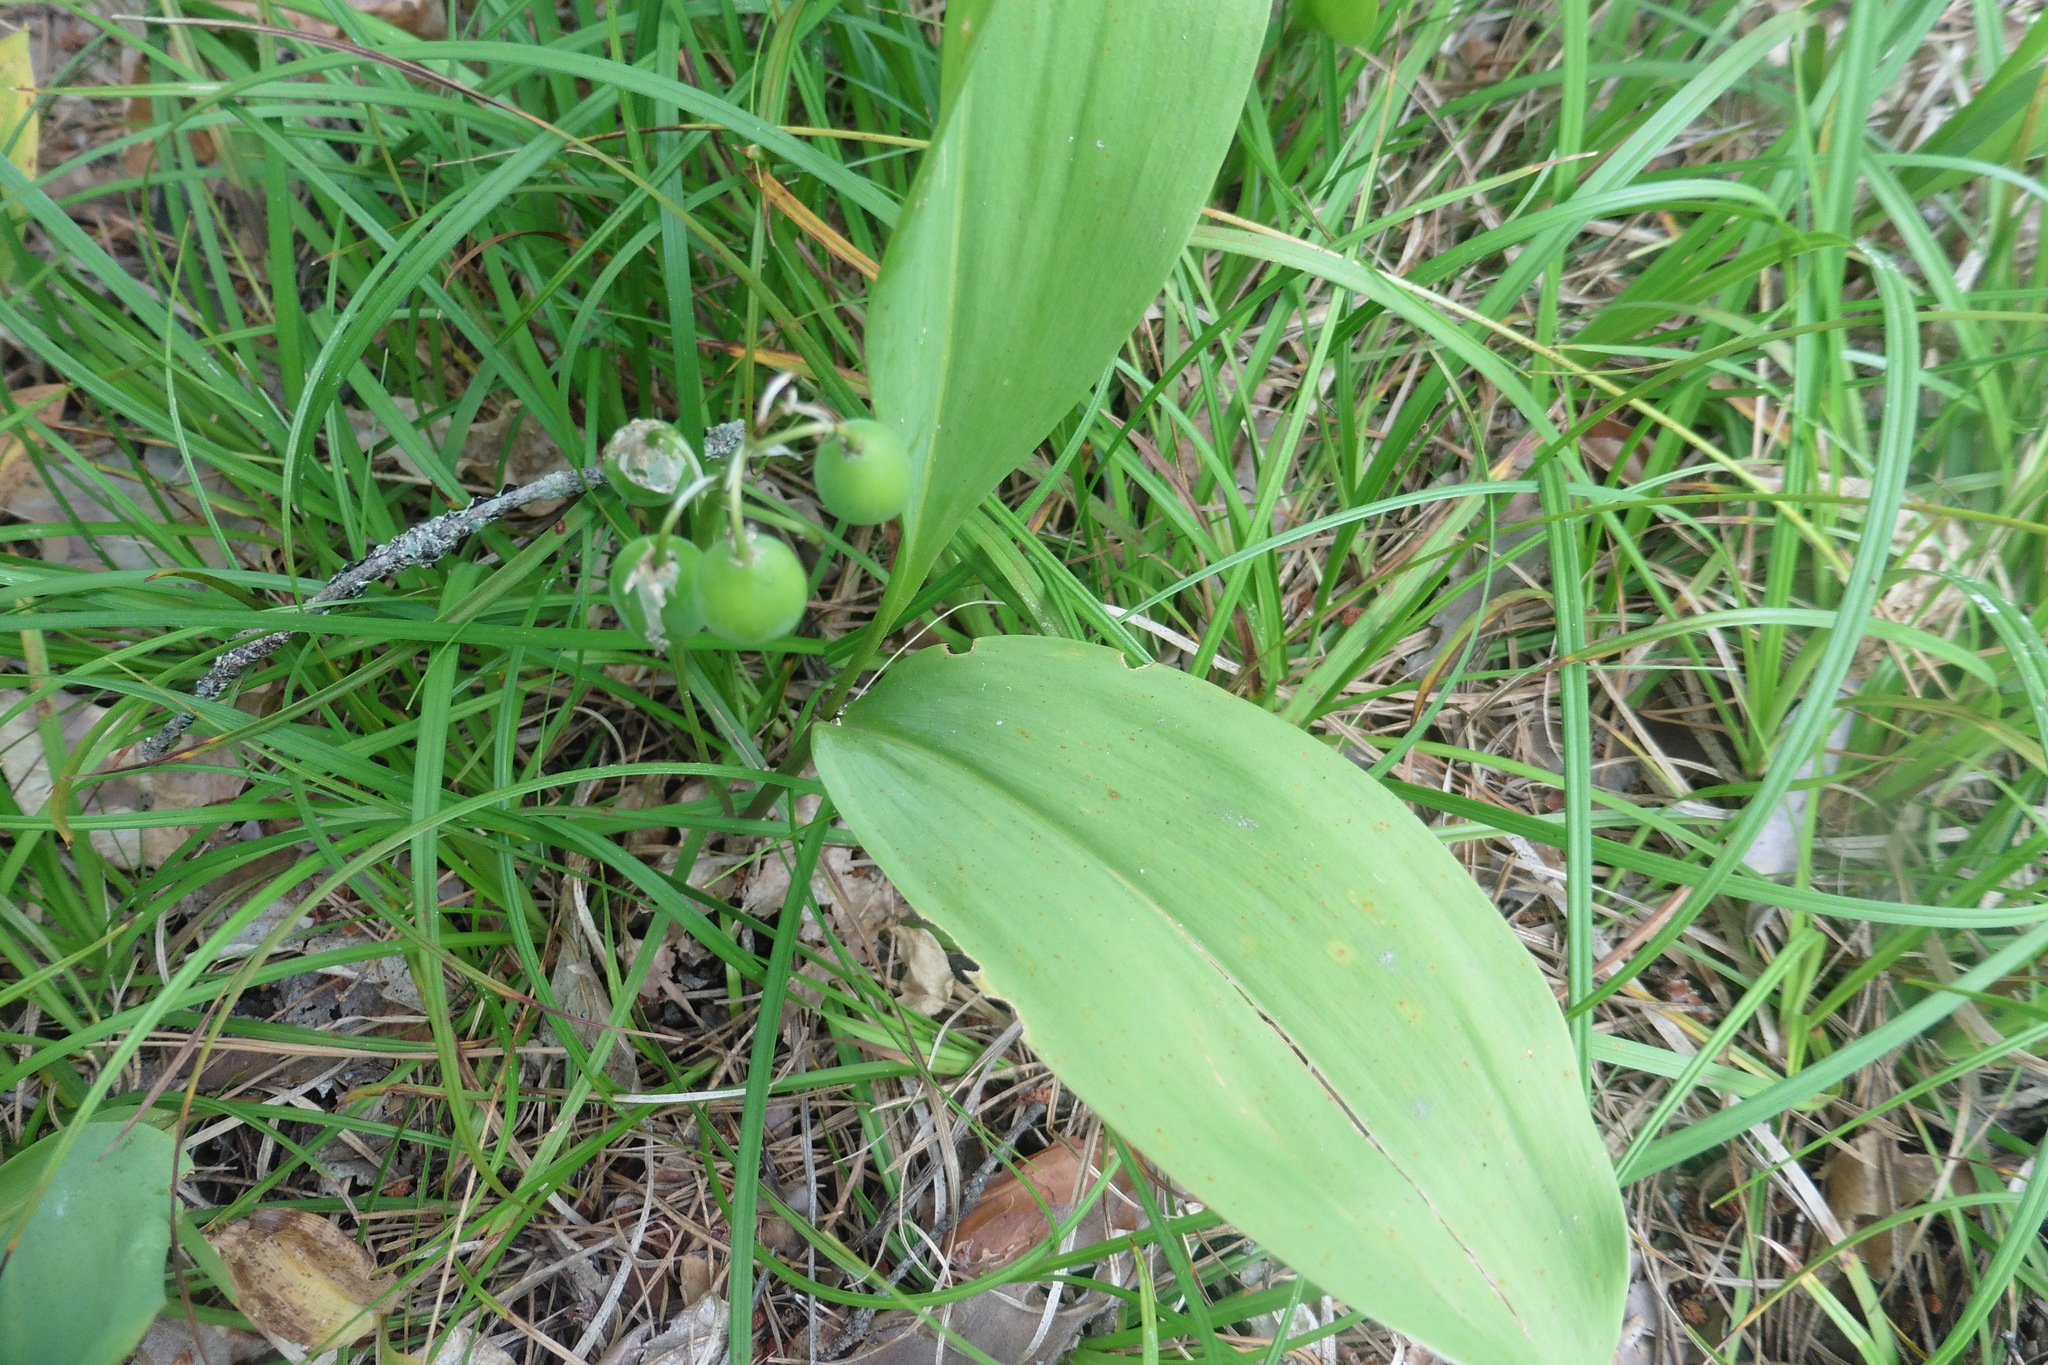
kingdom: Plantae
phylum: Tracheophyta
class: Liliopsida
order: Asparagales
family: Asparagaceae
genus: Convallaria
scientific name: Convallaria majalis
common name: Lily-of-the-valley
